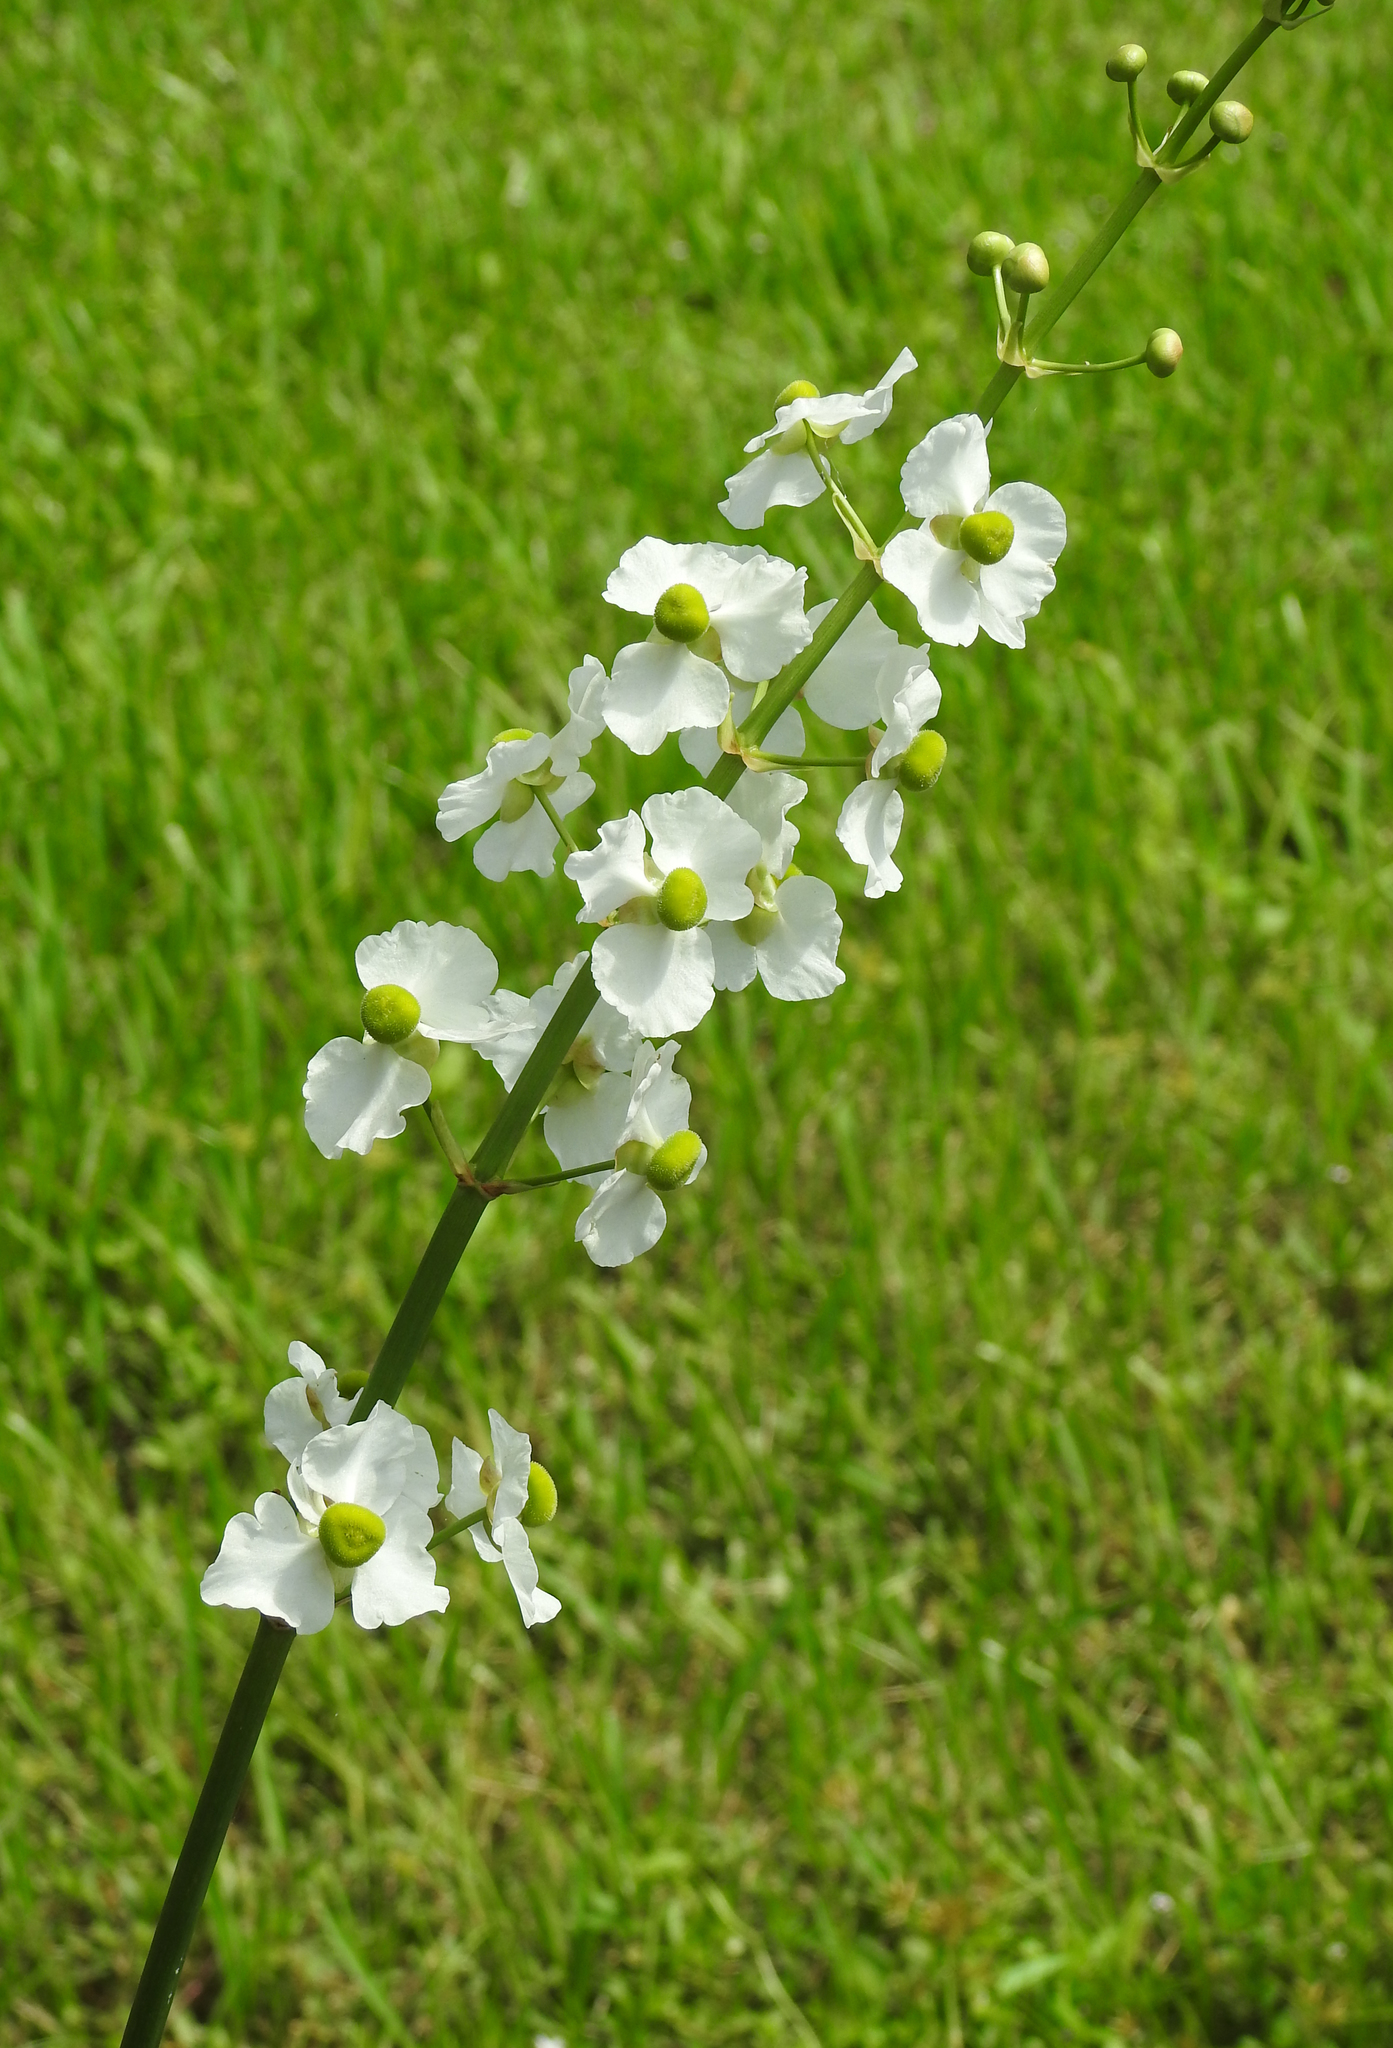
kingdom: Plantae
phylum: Tracheophyta
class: Liliopsida
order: Alismatales
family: Alismataceae
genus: Sagittaria
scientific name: Sagittaria lancifolia
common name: Lance-leaf arrowhead
